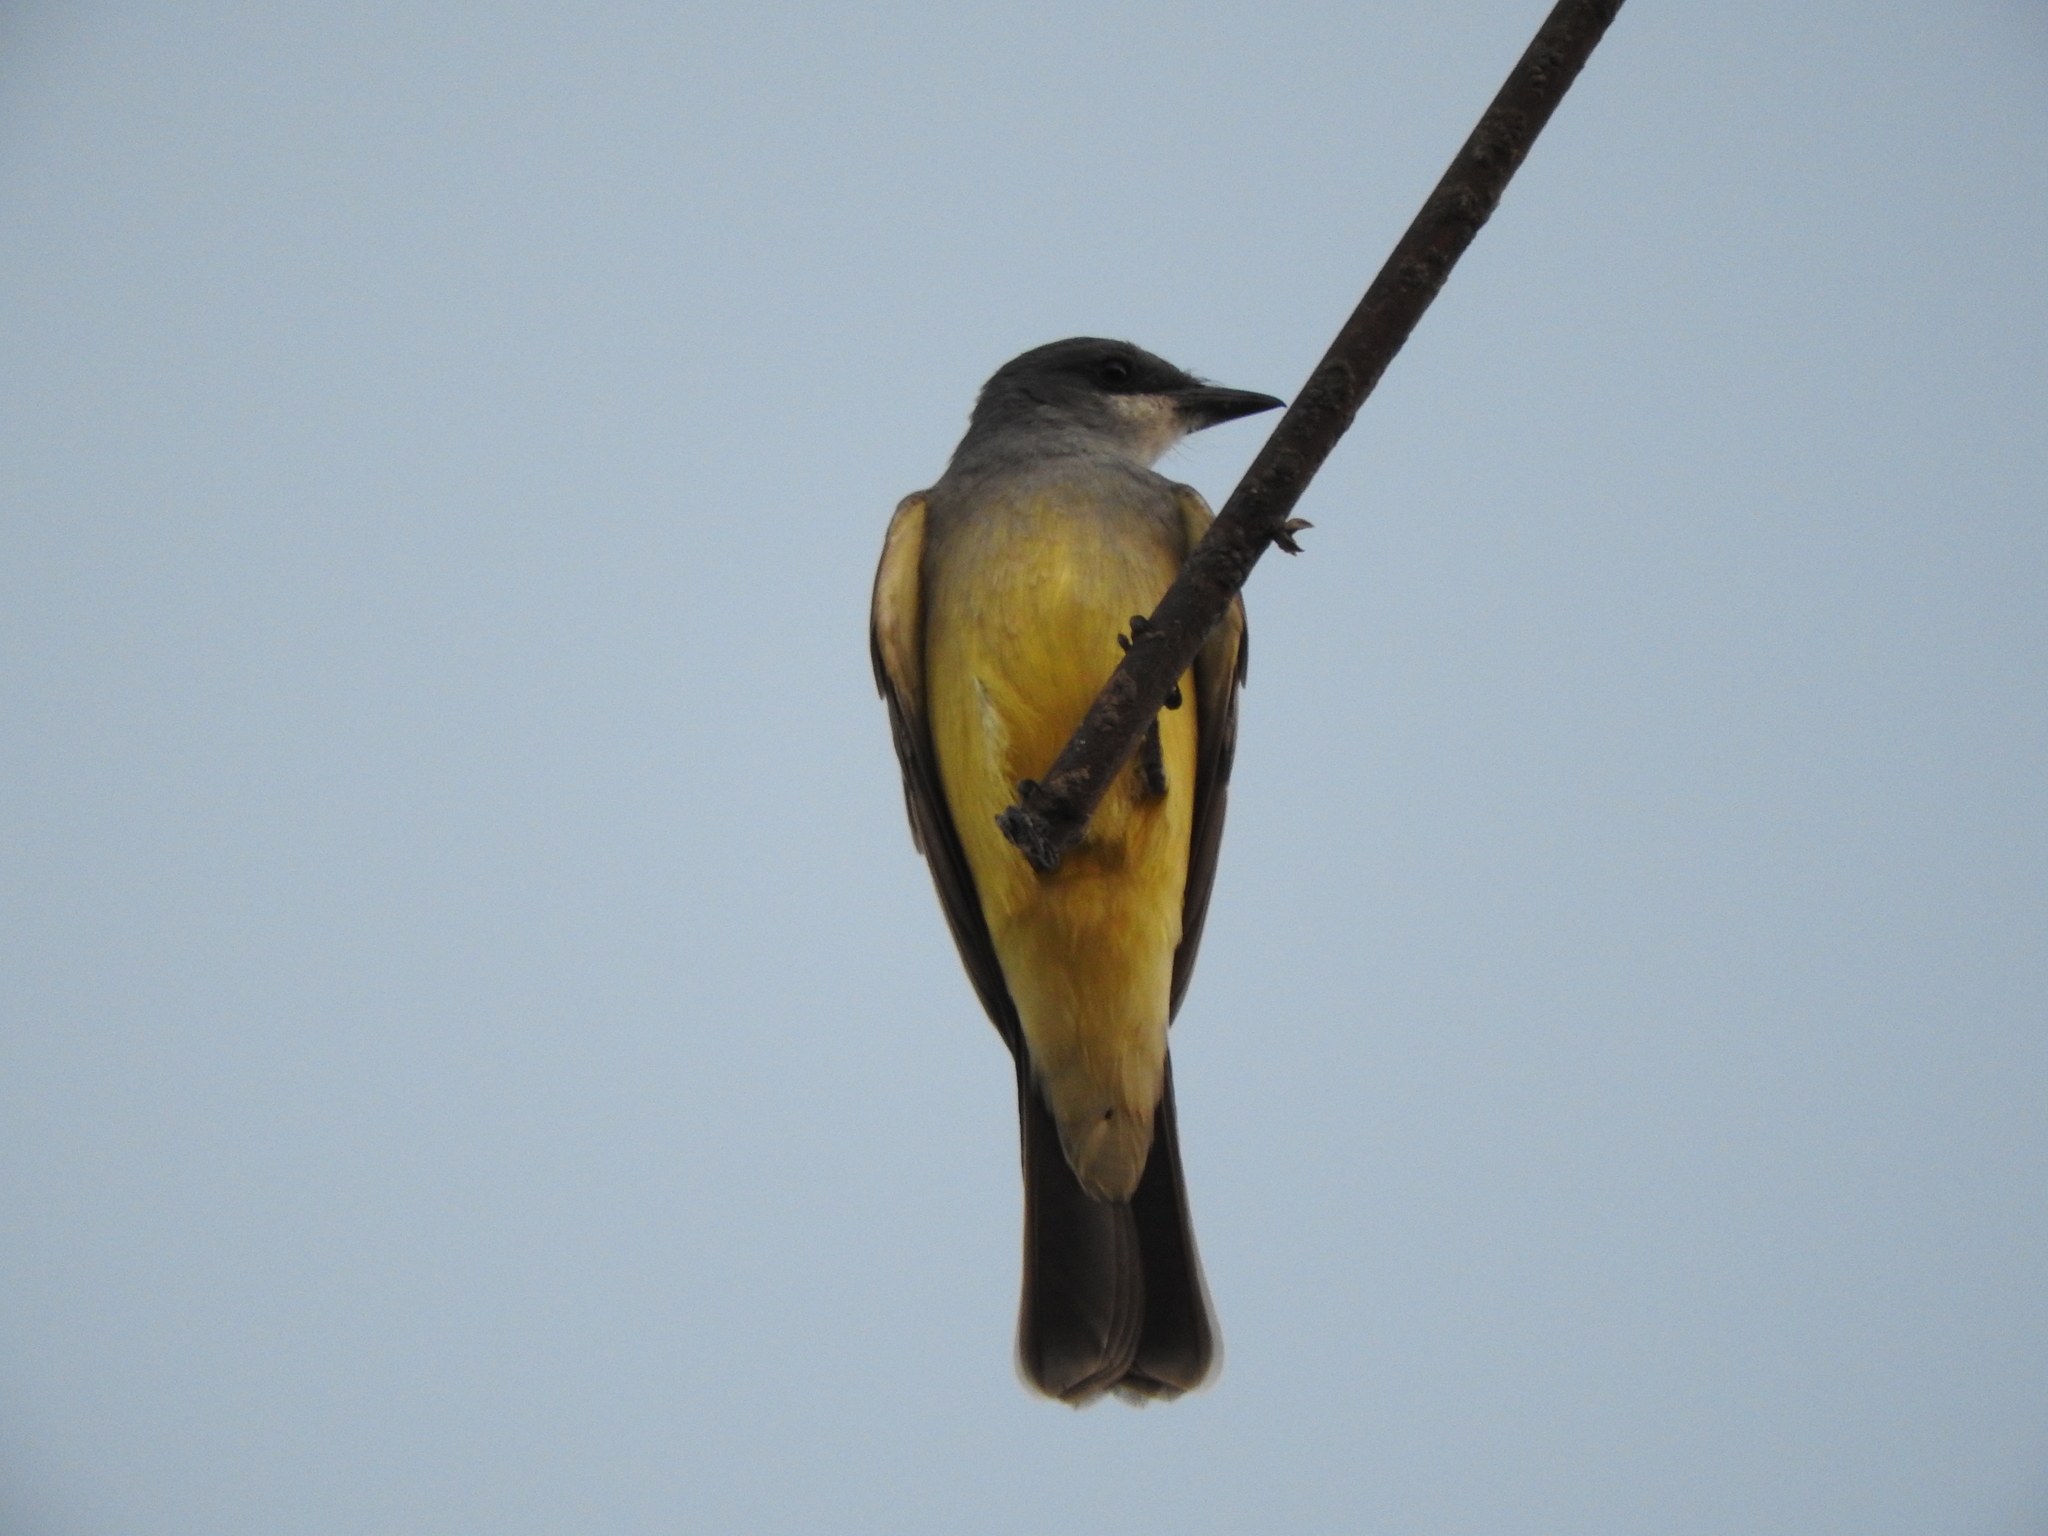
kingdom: Animalia
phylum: Chordata
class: Aves
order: Passeriformes
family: Tyrannidae
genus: Tyrannus
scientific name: Tyrannus vociferans
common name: Cassin's kingbird
